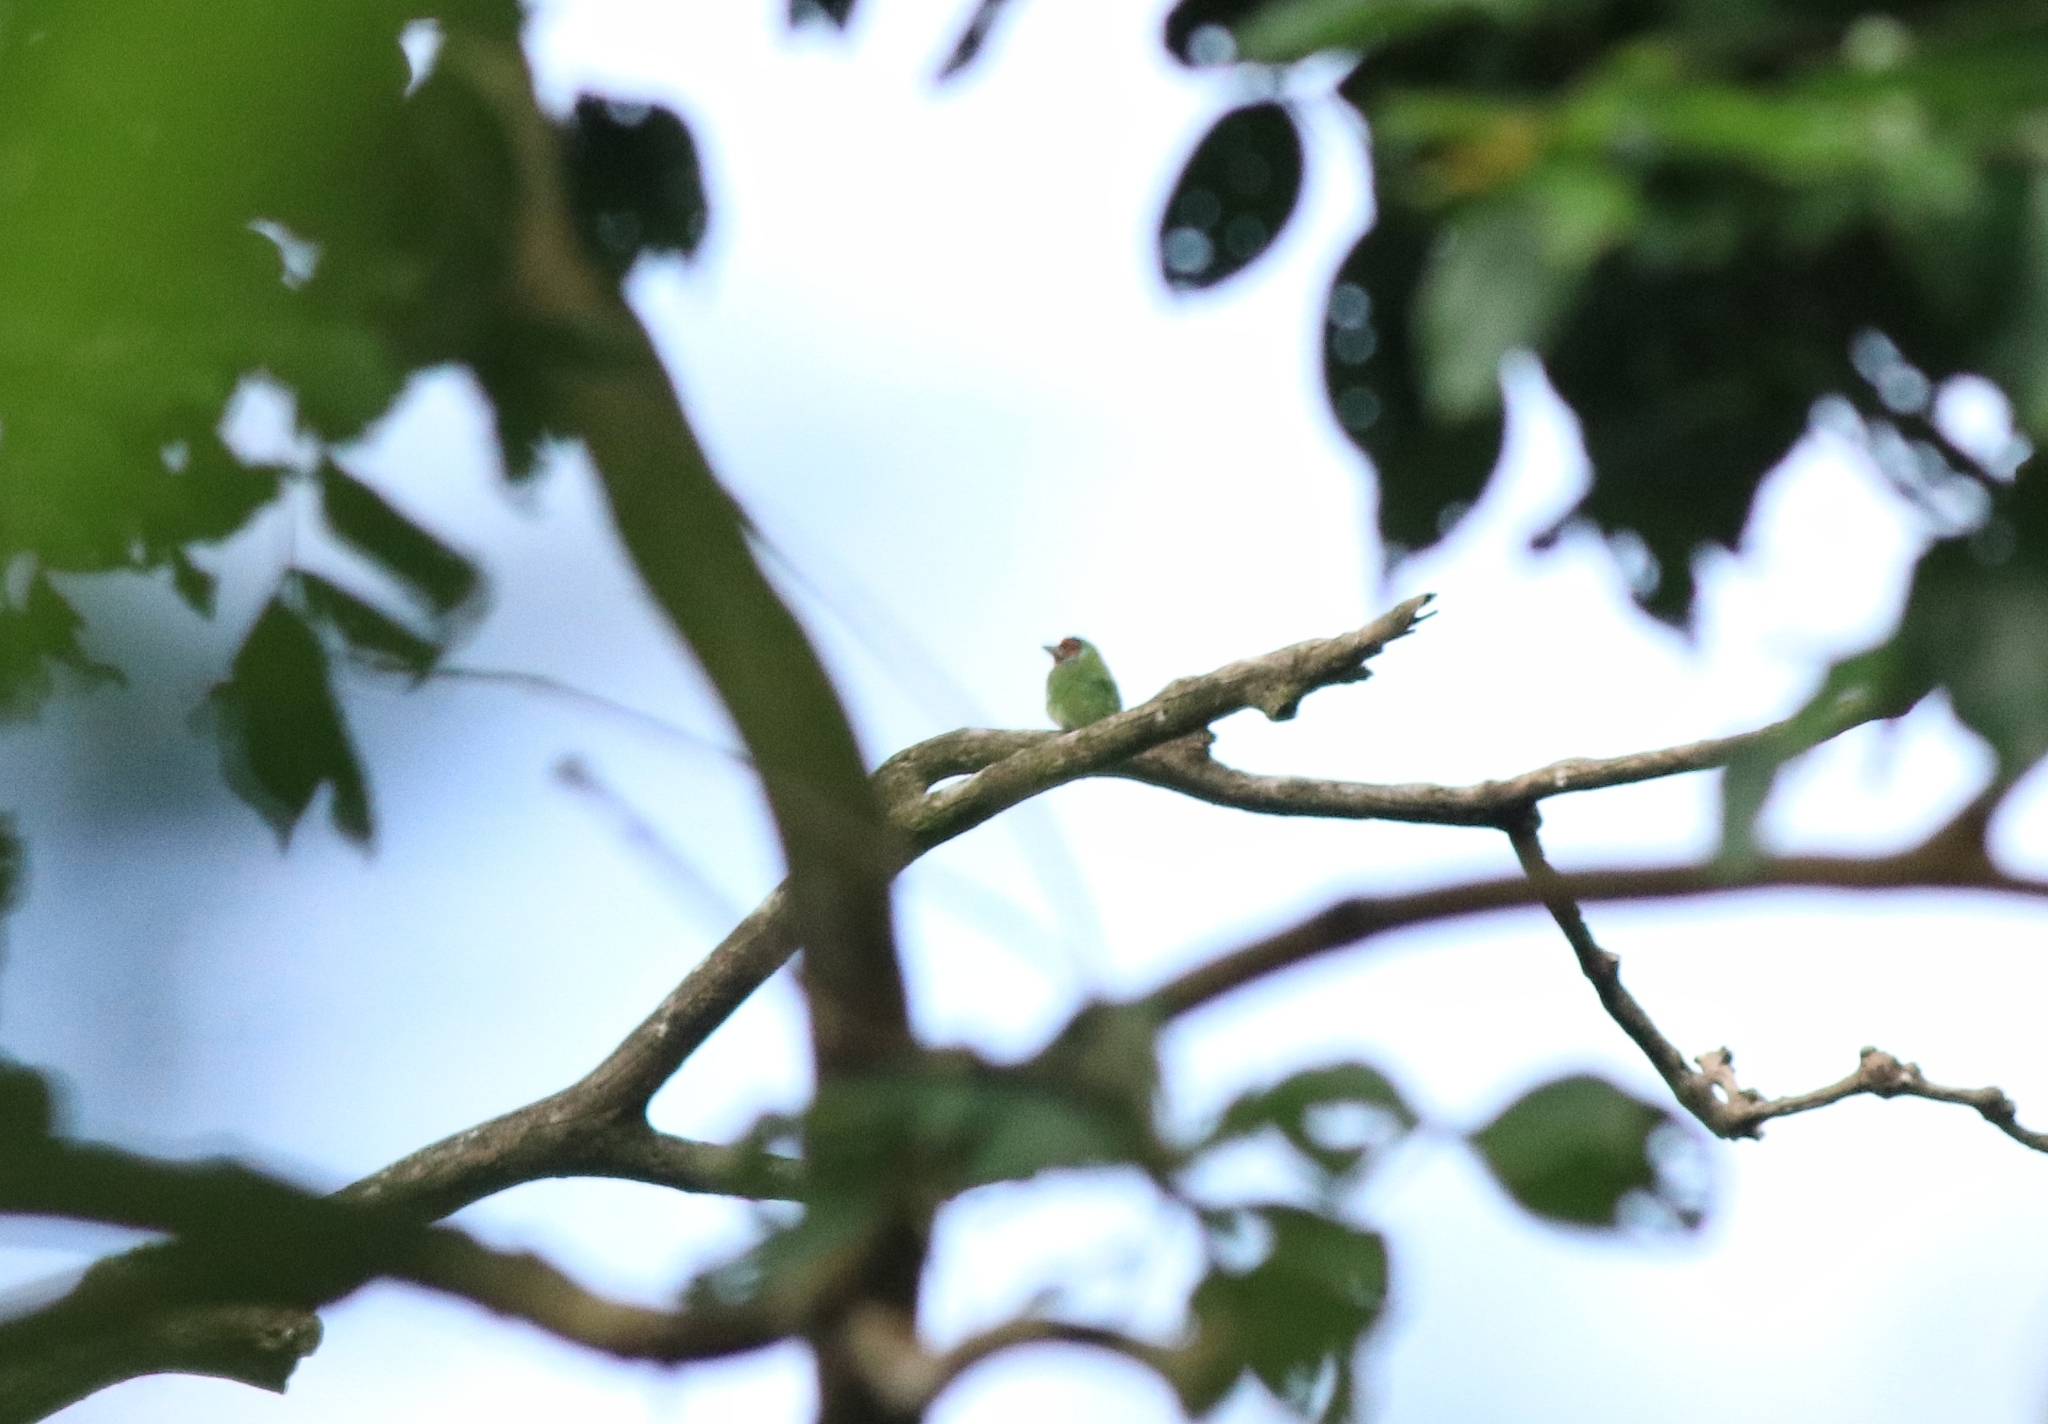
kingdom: Animalia
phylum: Chordata
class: Aves
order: Piciformes
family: Megalaimidae
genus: Psilopogon
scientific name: Psilopogon malabaricus
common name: Malabar barbet
